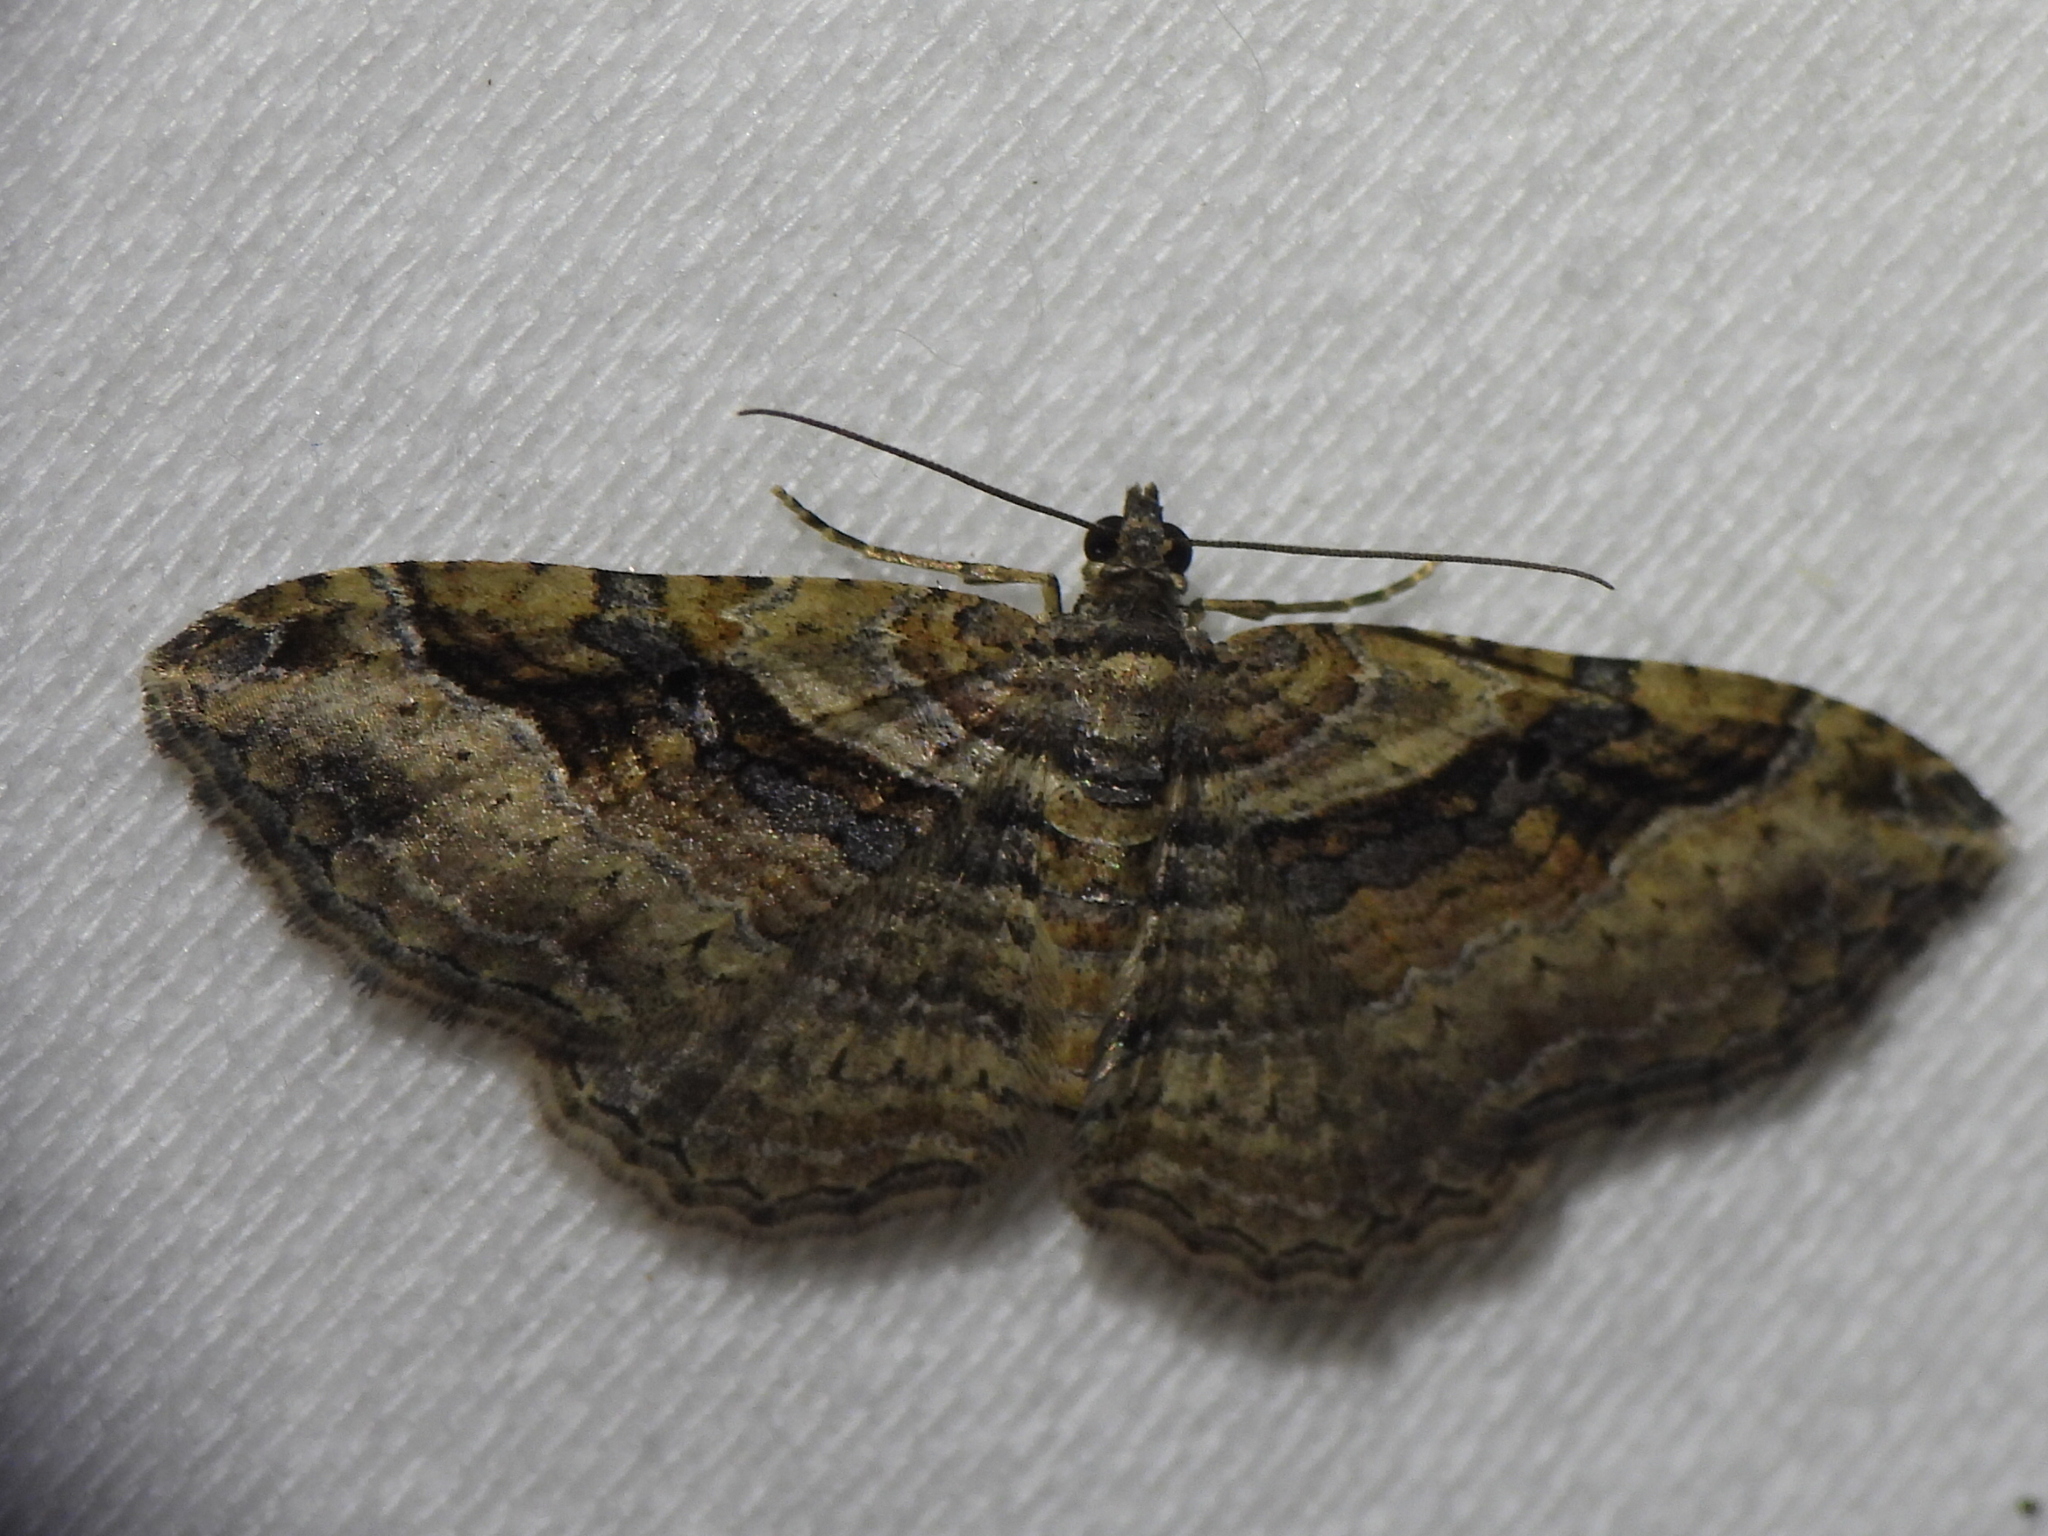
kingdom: Animalia
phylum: Arthropoda
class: Insecta
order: Lepidoptera
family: Geometridae
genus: Costaconvexa
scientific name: Costaconvexa centrostrigaria
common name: Bent-line carpet
